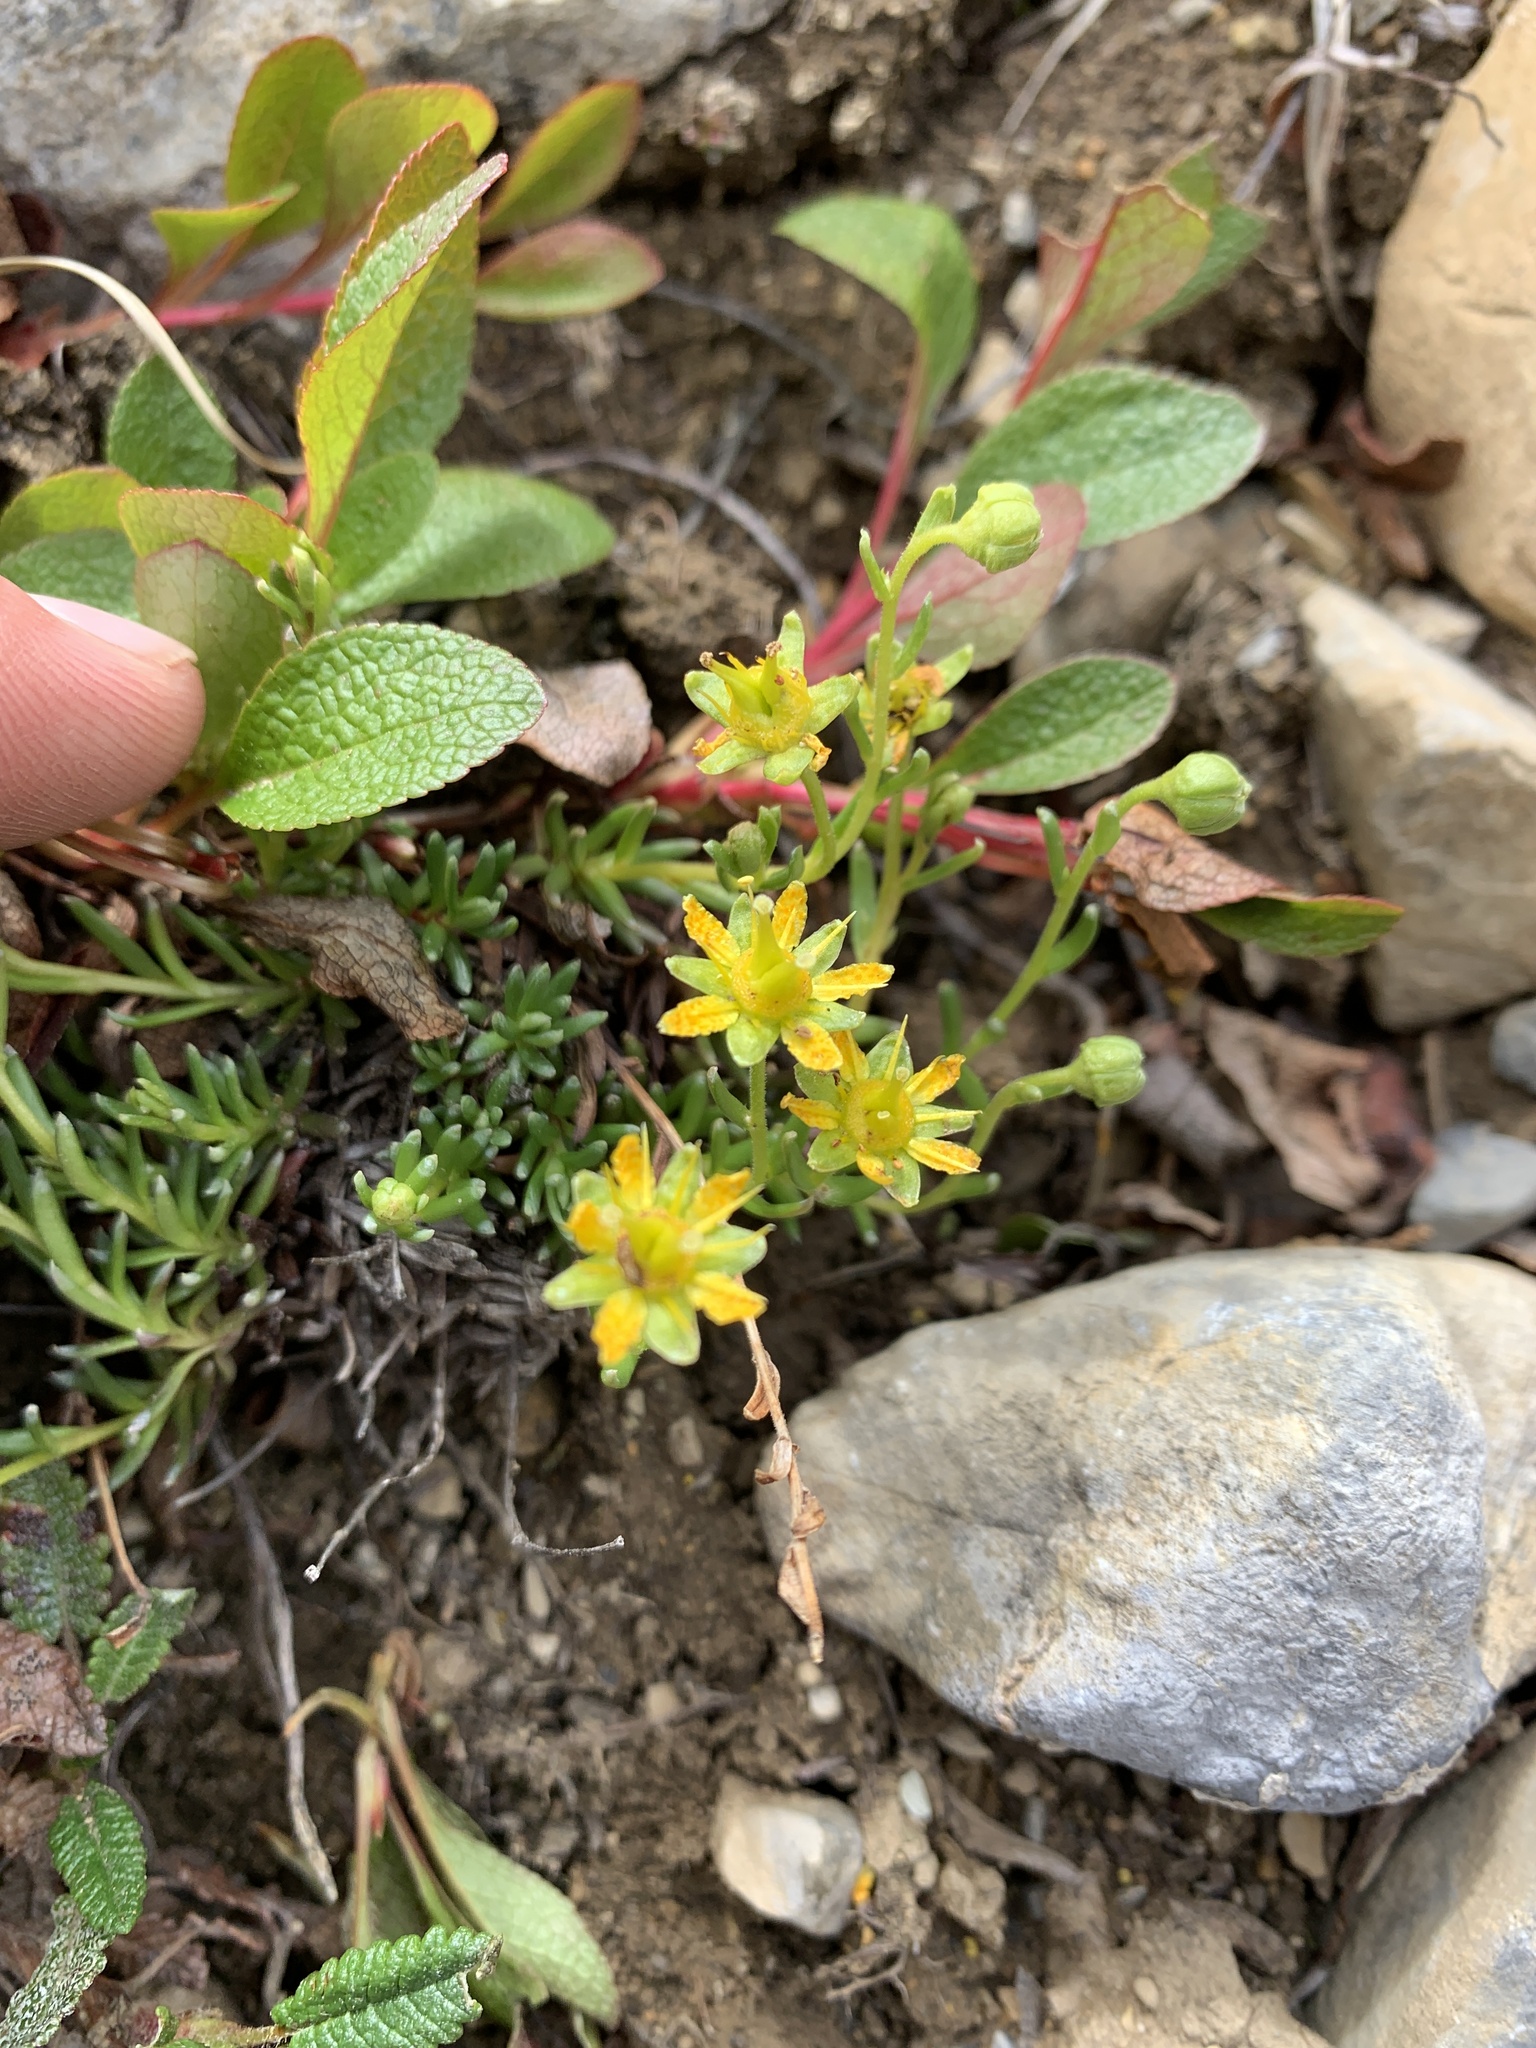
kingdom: Plantae
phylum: Tracheophyta
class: Magnoliopsida
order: Saxifragales
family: Saxifragaceae
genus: Saxifraga
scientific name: Saxifraga aizoides
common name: Yellow mountain saxifrage
